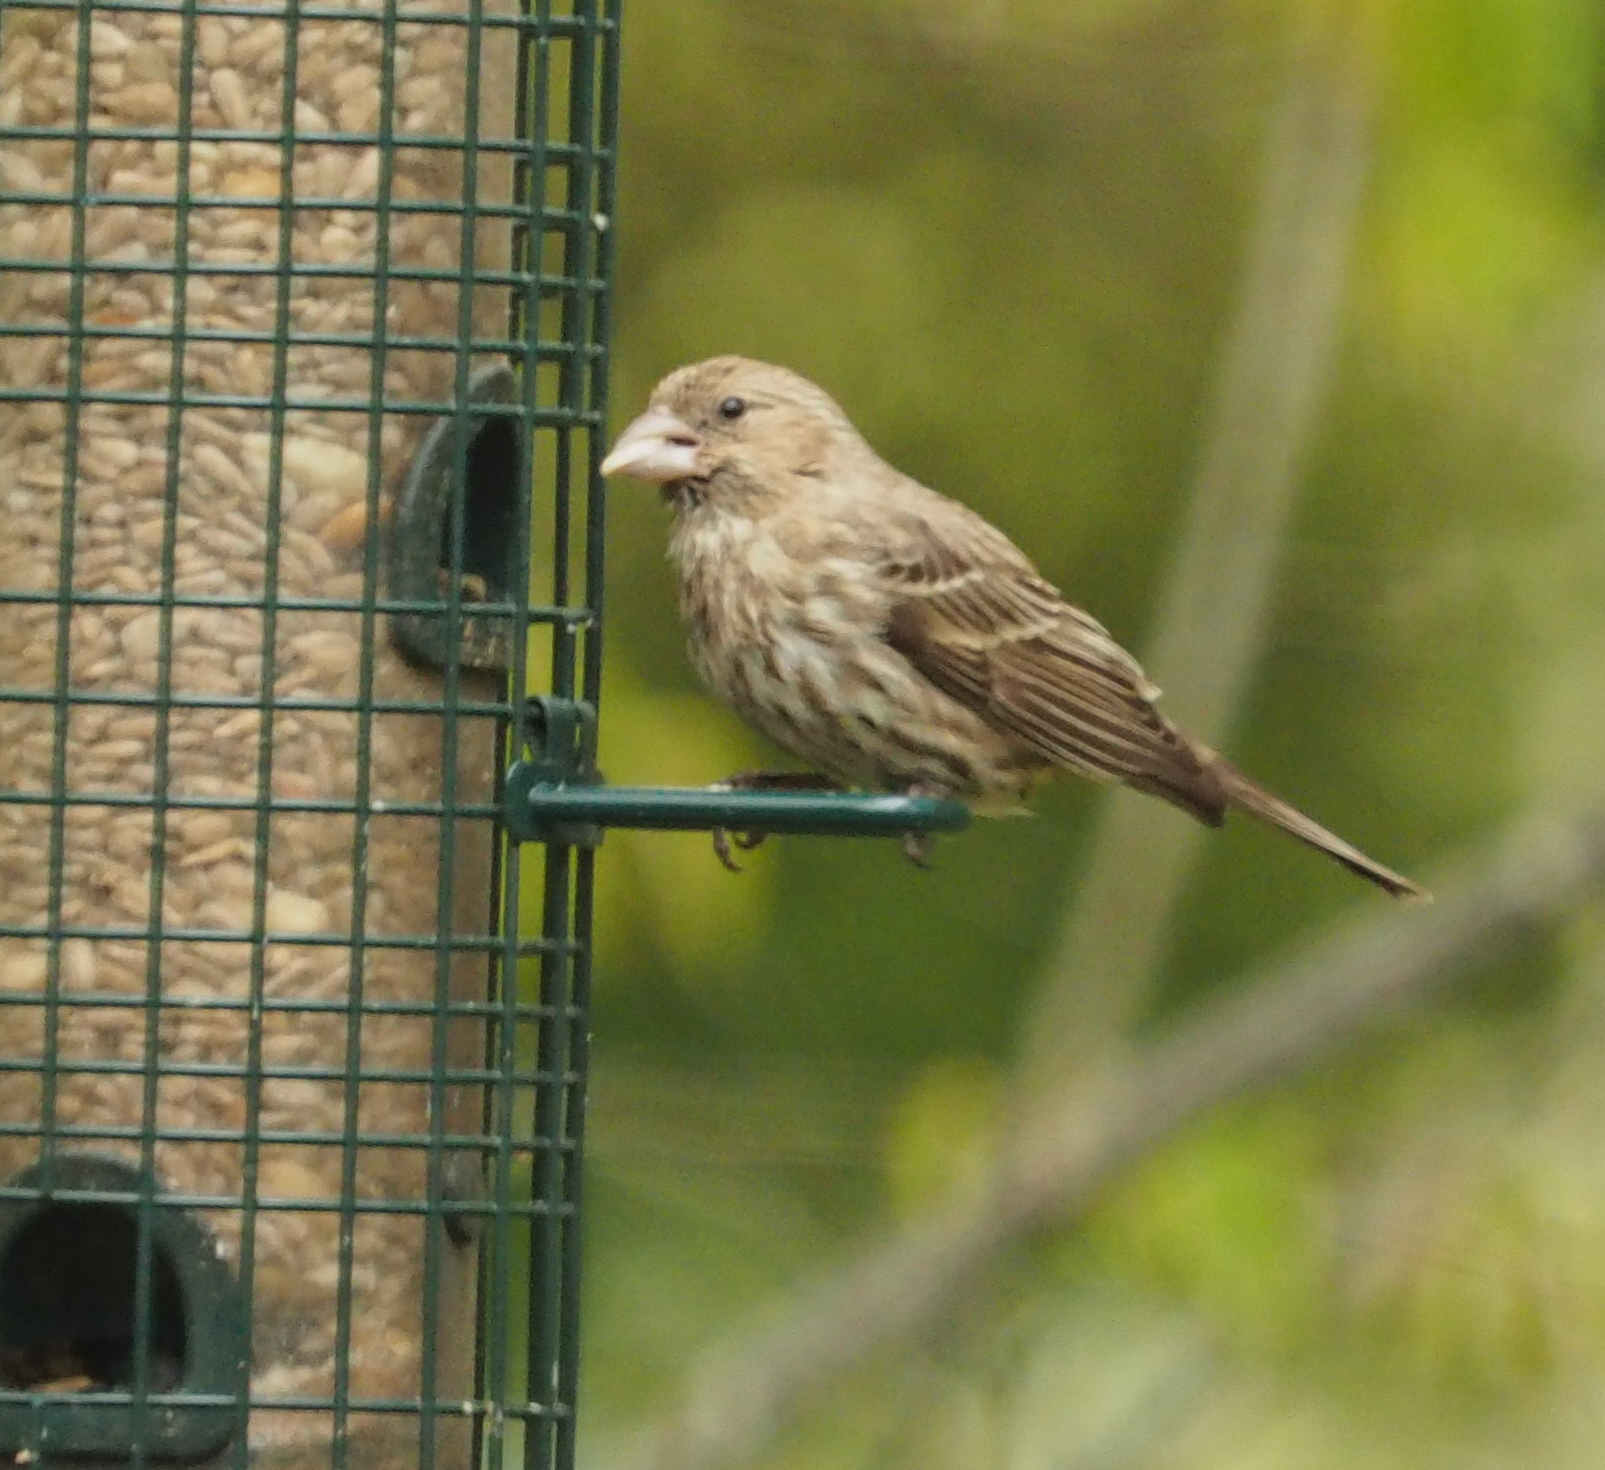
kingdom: Animalia
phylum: Chordata
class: Aves
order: Passeriformes
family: Fringillidae
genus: Haemorhous
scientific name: Haemorhous mexicanus
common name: House finch
